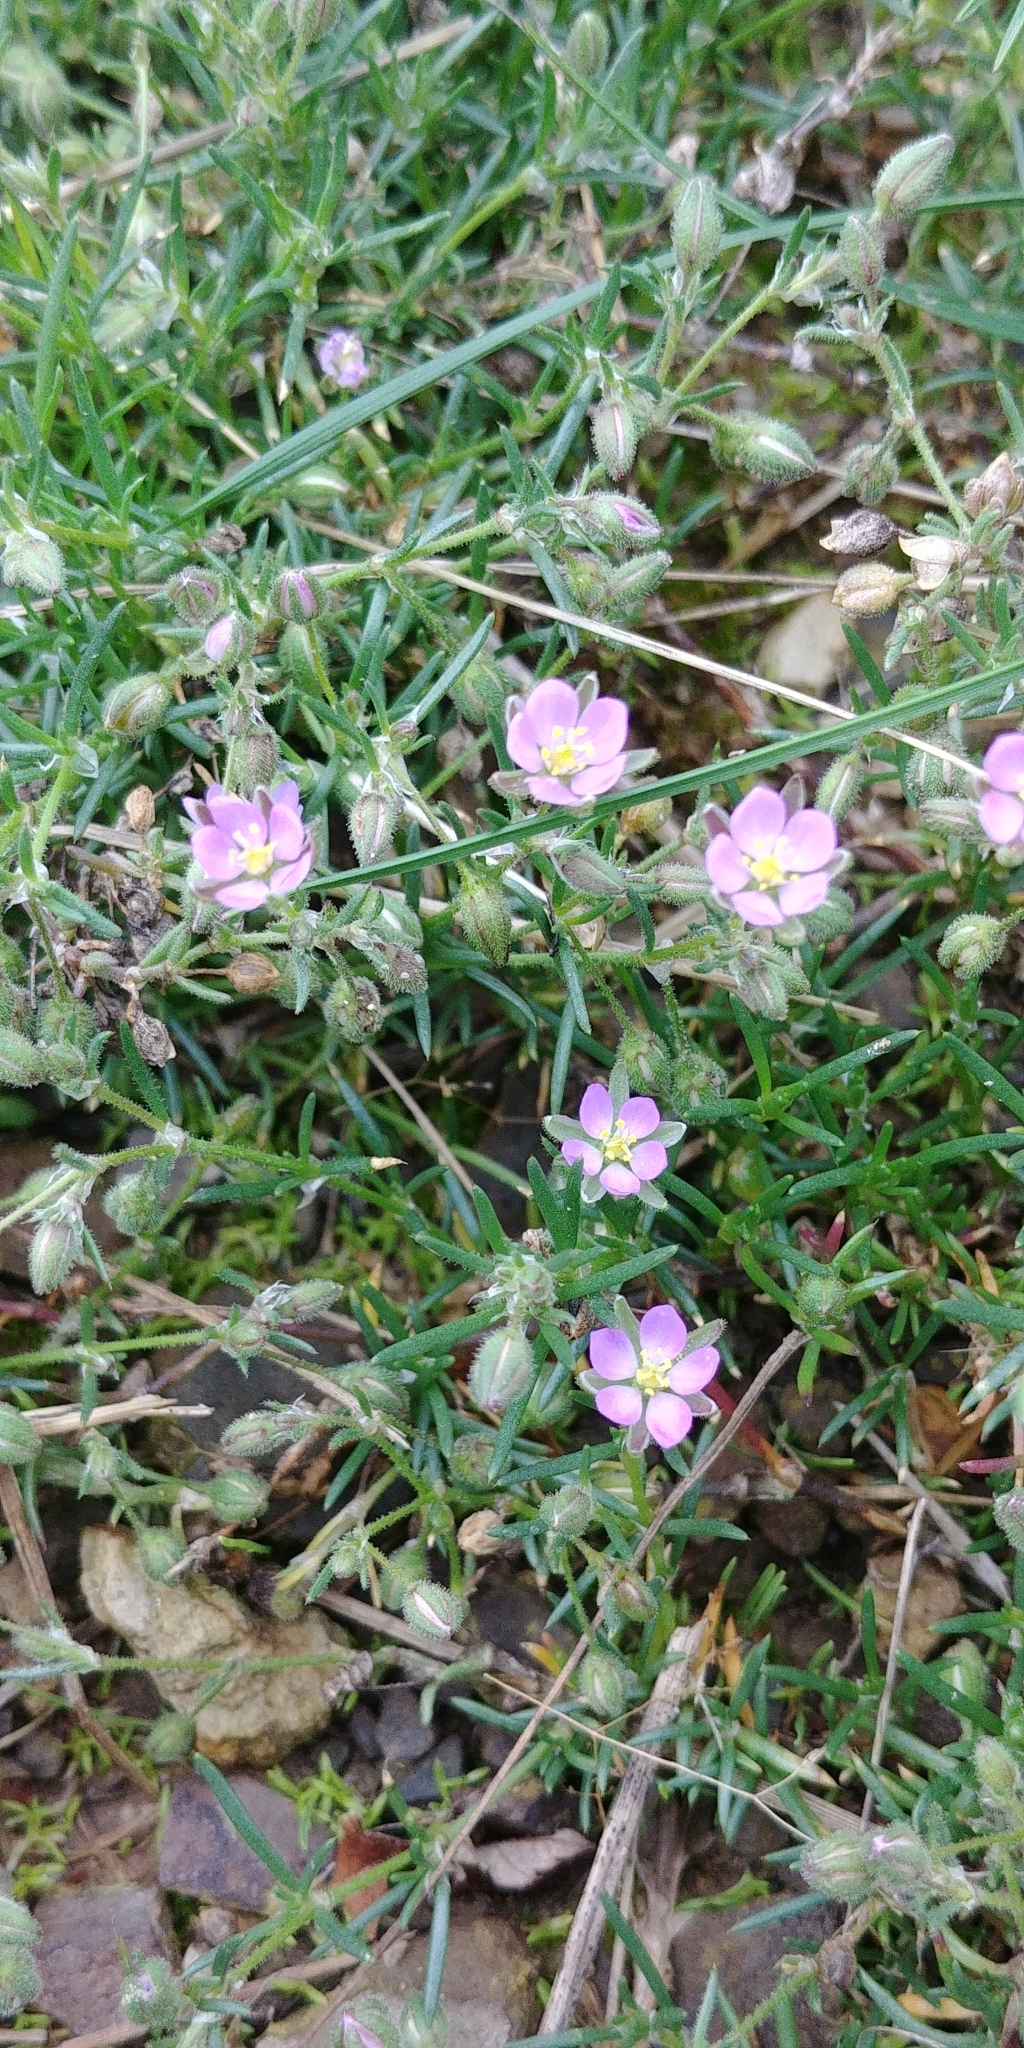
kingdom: Plantae
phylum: Tracheophyta
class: Magnoliopsida
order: Caryophyllales
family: Caryophyllaceae
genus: Spergularia
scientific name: Spergularia rubra
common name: Red sand-spurrey
